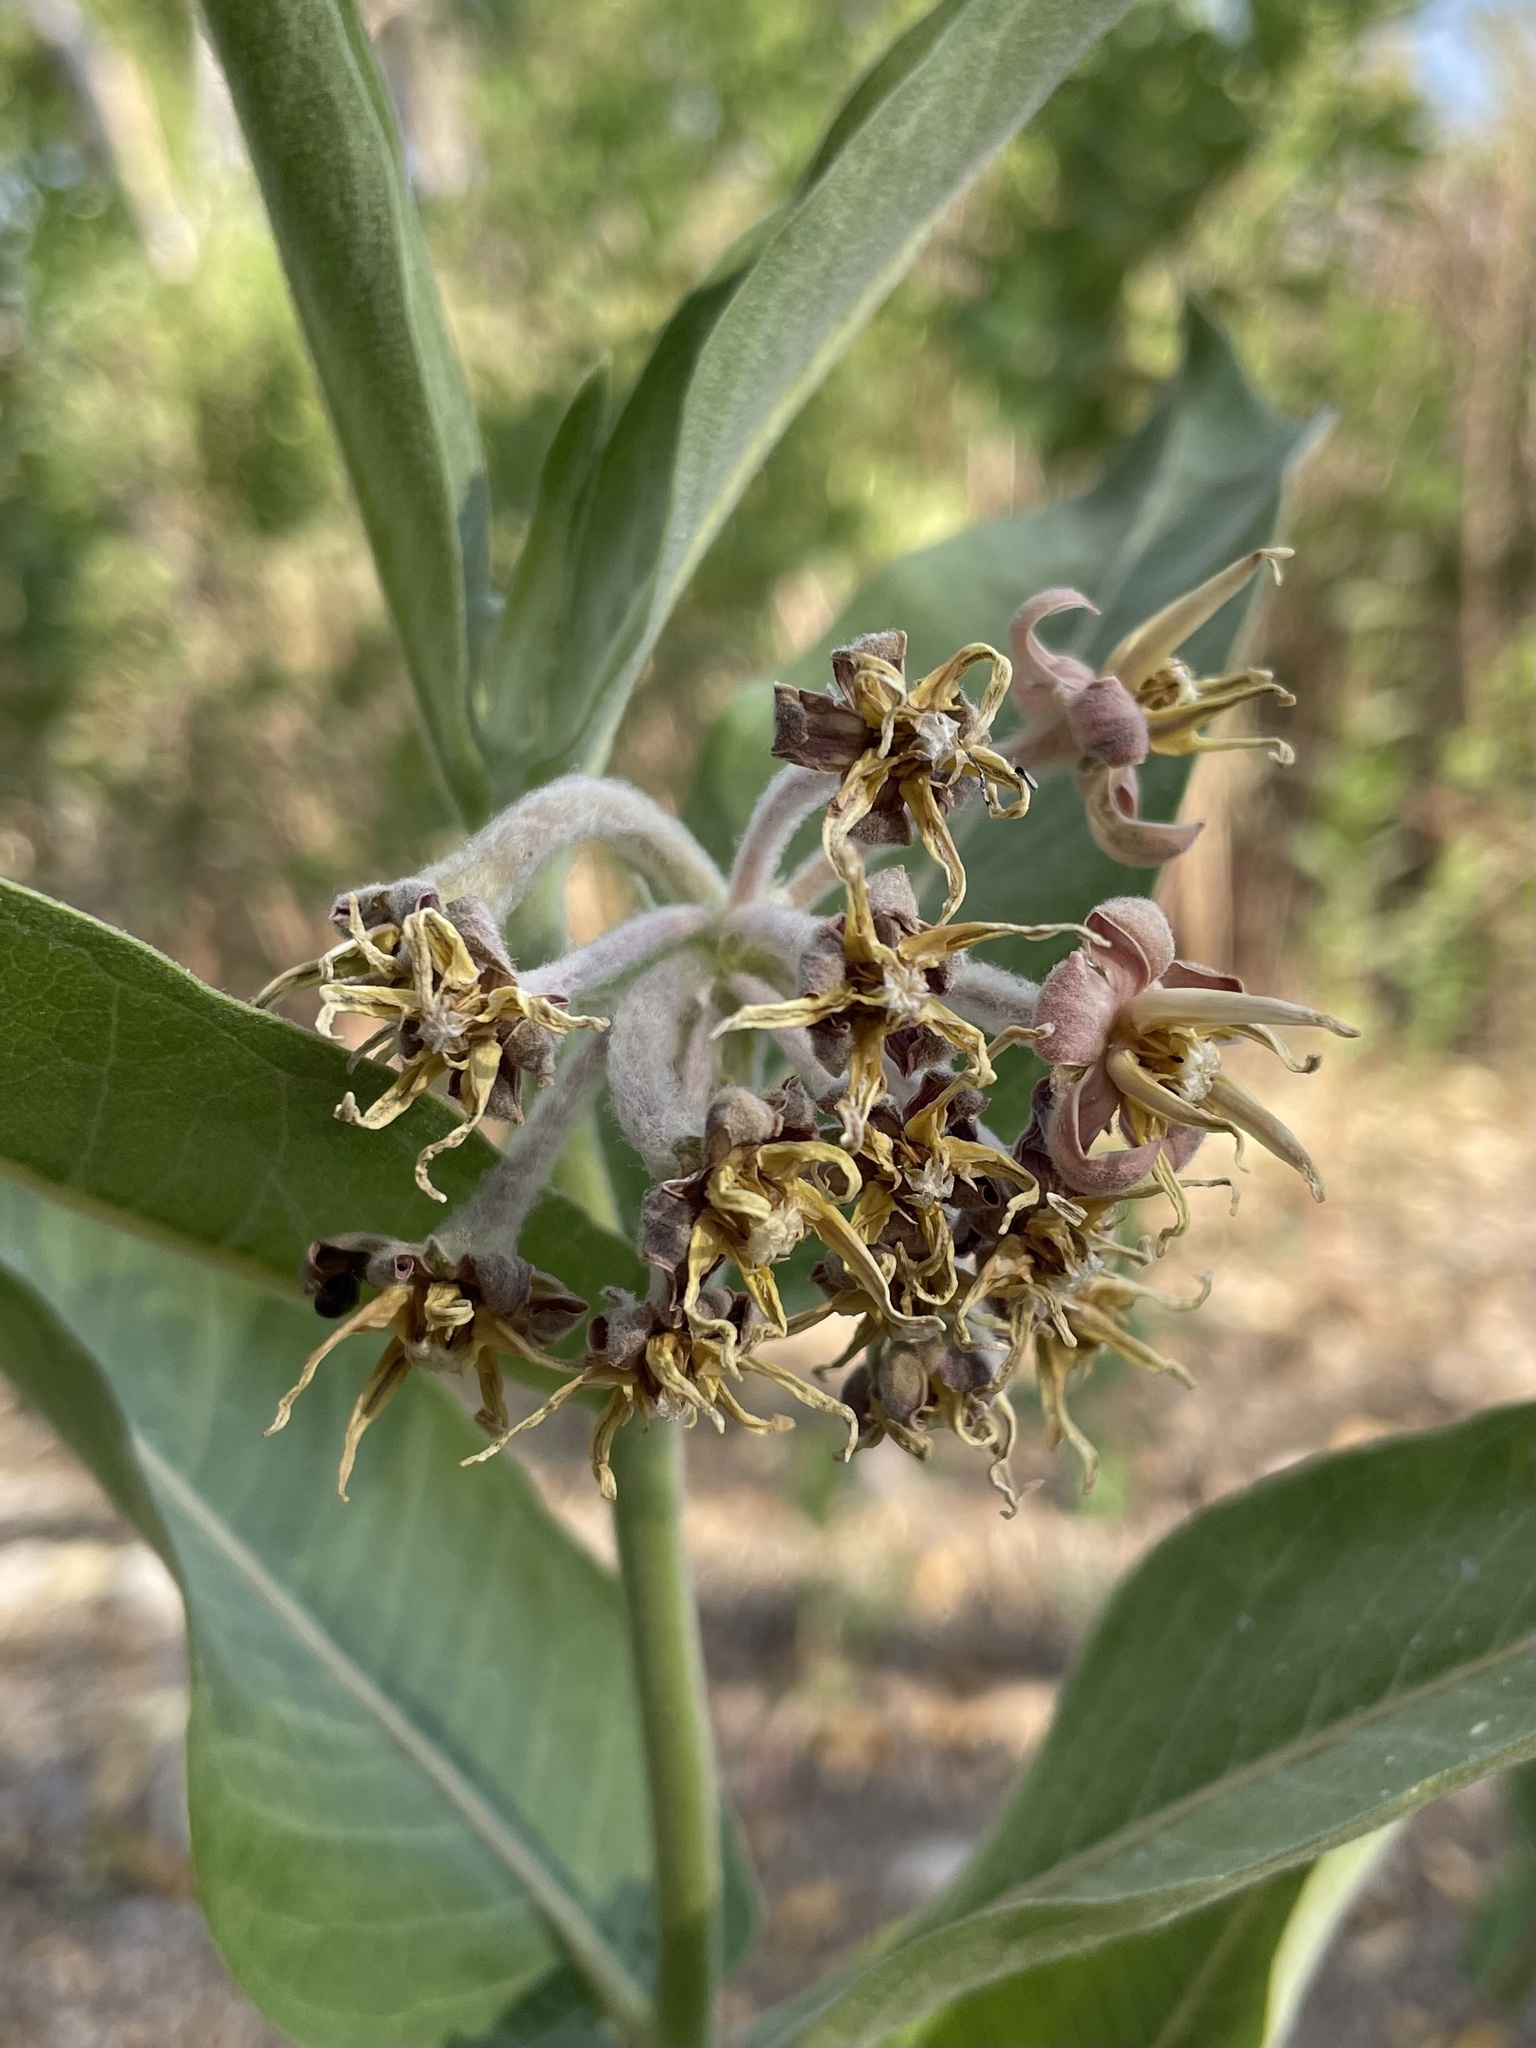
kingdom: Plantae
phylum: Tracheophyta
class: Magnoliopsida
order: Gentianales
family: Apocynaceae
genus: Asclepias
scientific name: Asclepias speciosa
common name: Showy milkweed
